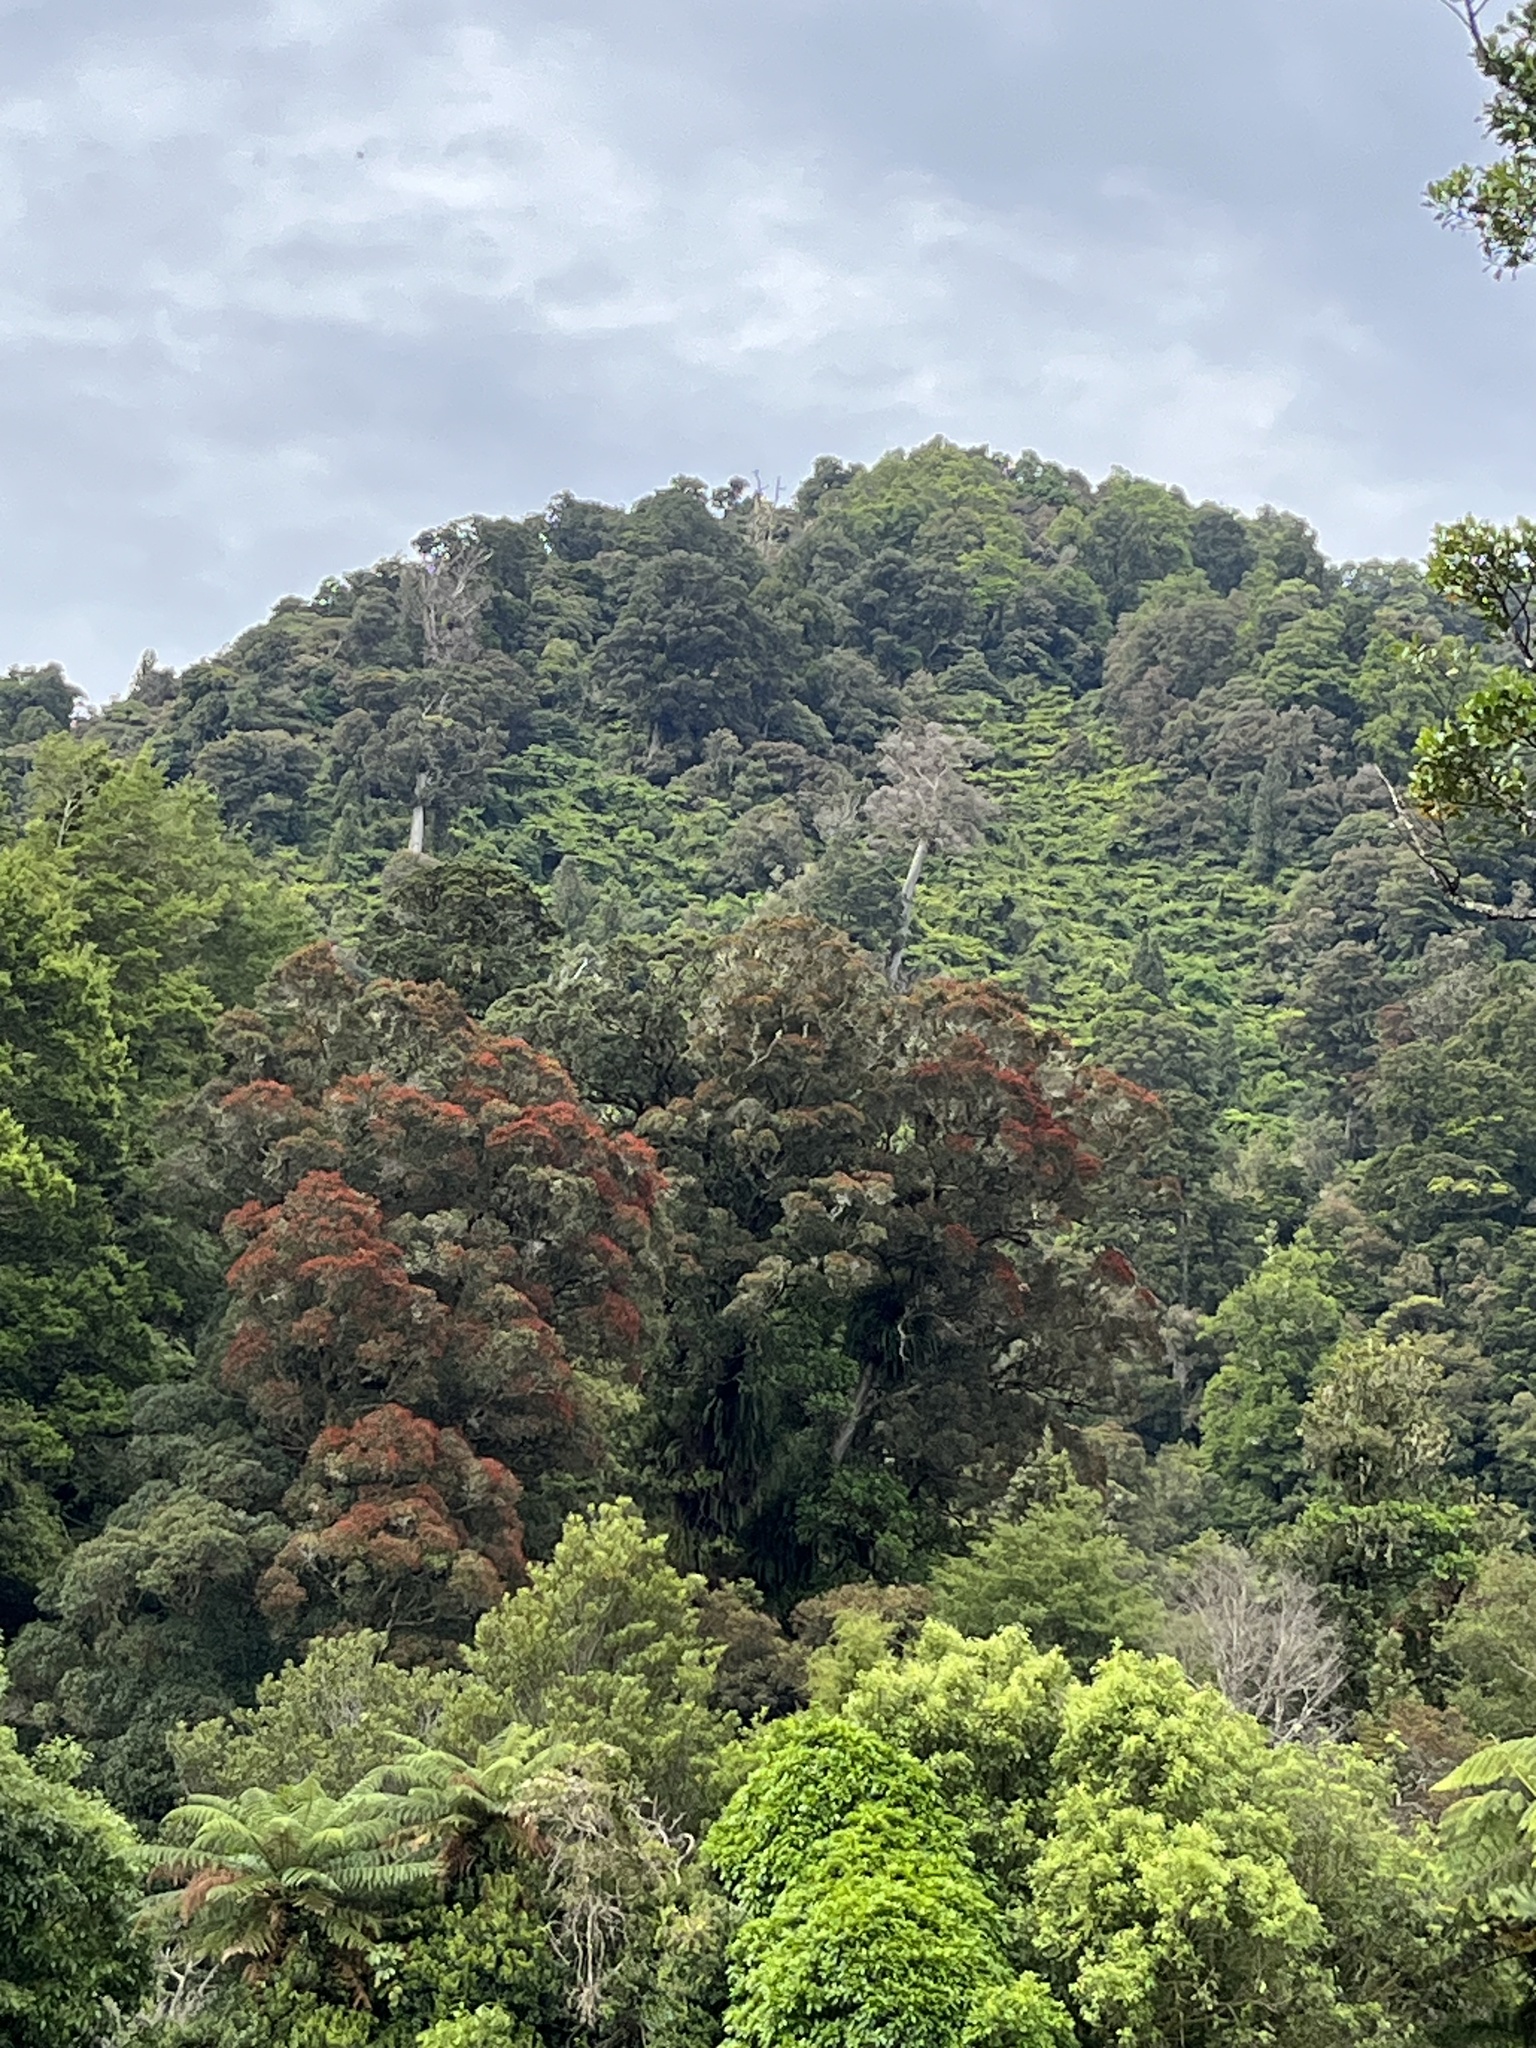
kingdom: Plantae
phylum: Tracheophyta
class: Magnoliopsida
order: Myrtales
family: Myrtaceae
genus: Metrosideros
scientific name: Metrosideros robusta
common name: Northern rata
